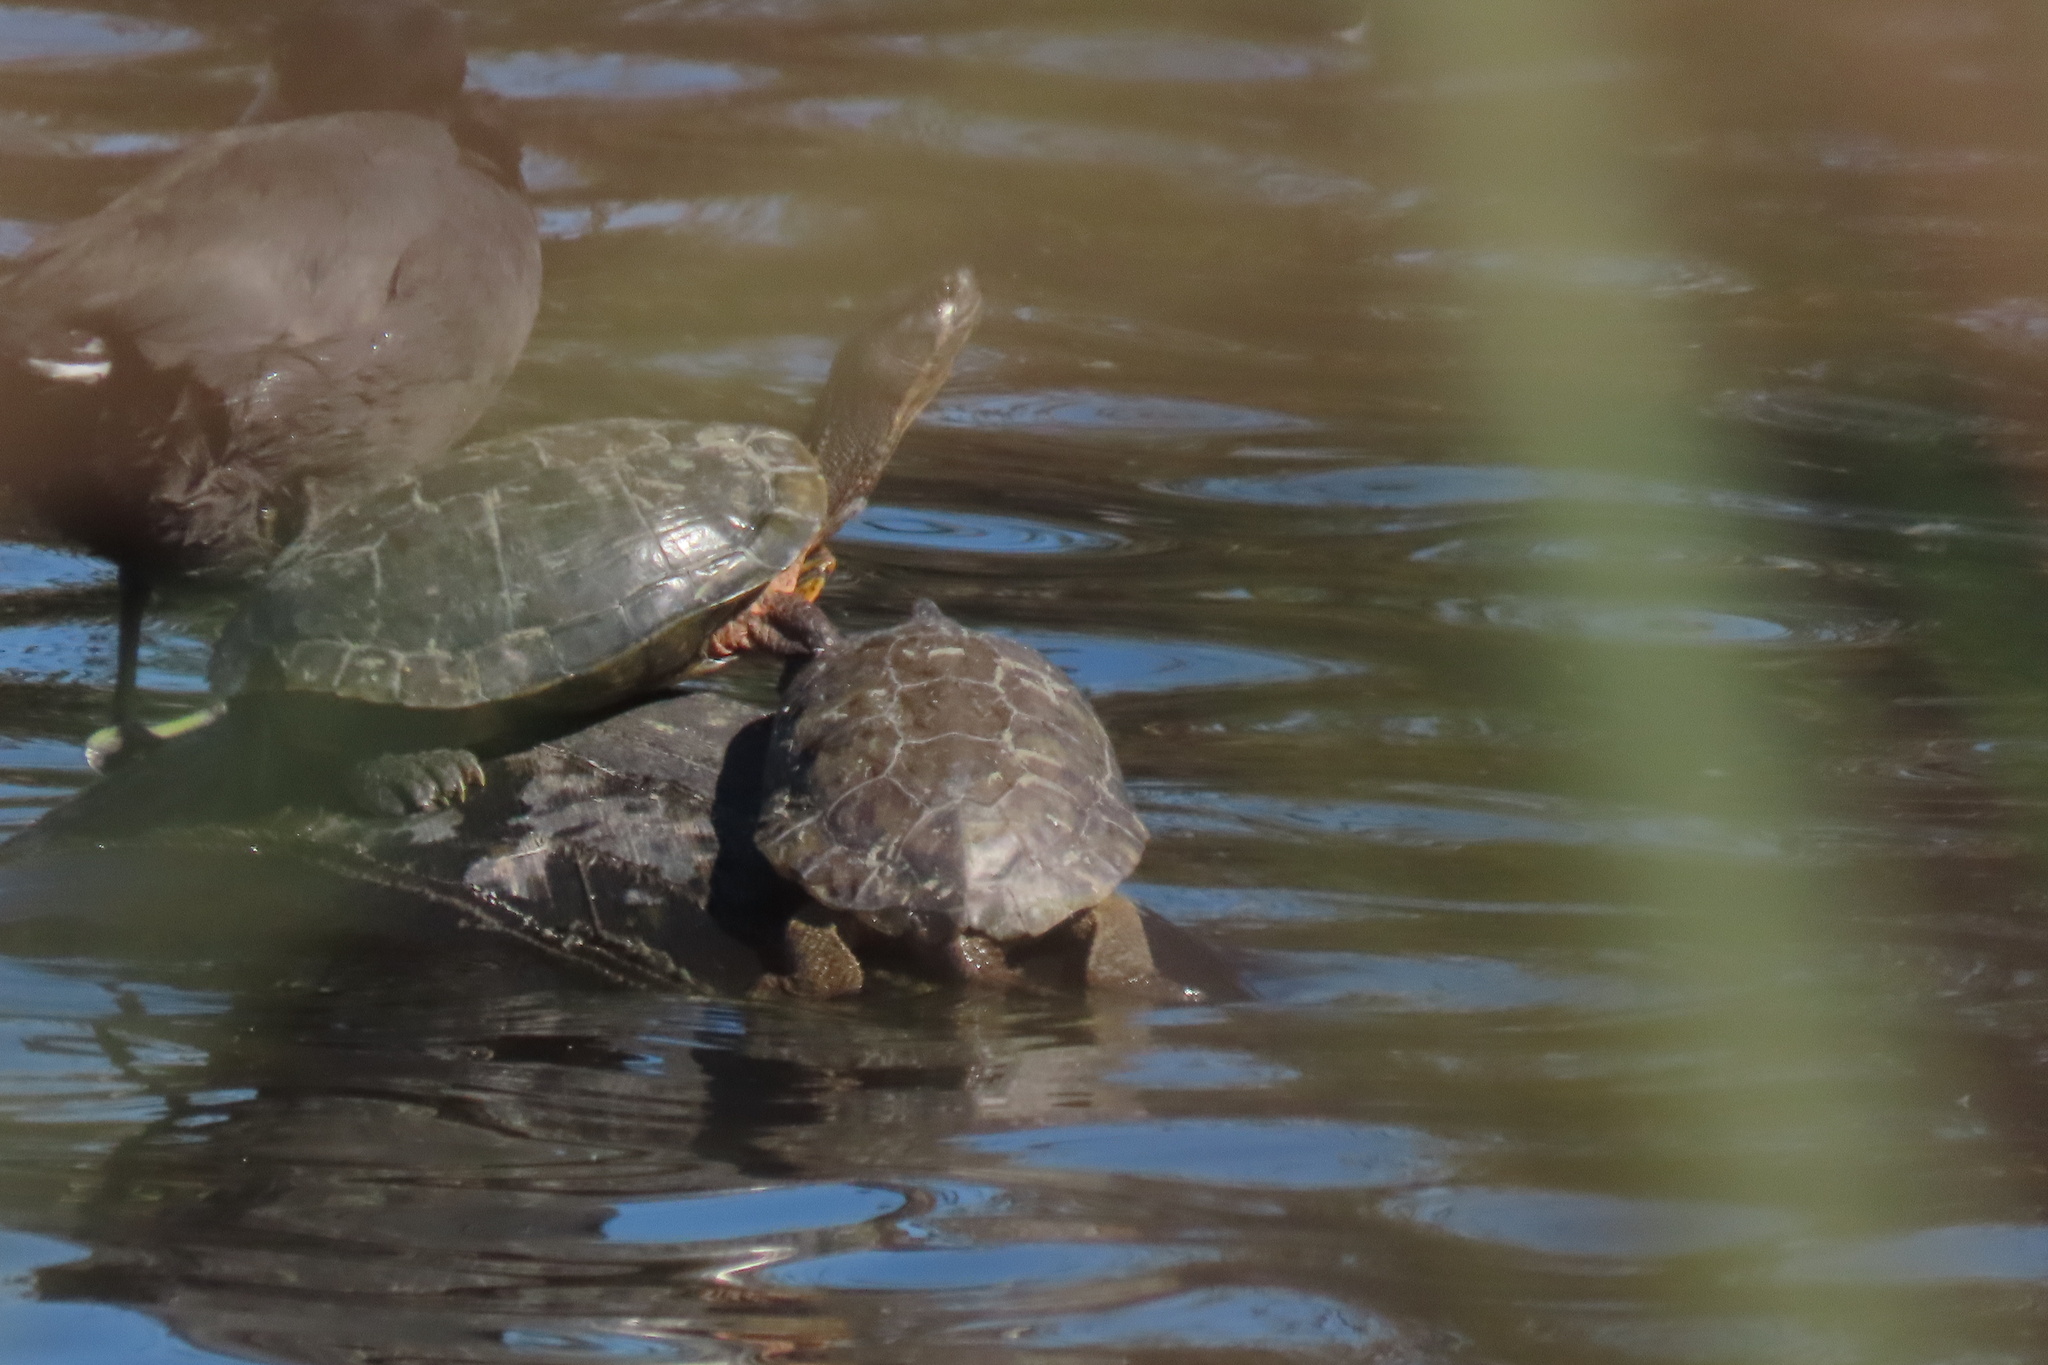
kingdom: Animalia
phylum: Chordata
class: Testudines
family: Emydidae
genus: Trachemys
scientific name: Trachemys scripta
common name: Slider
